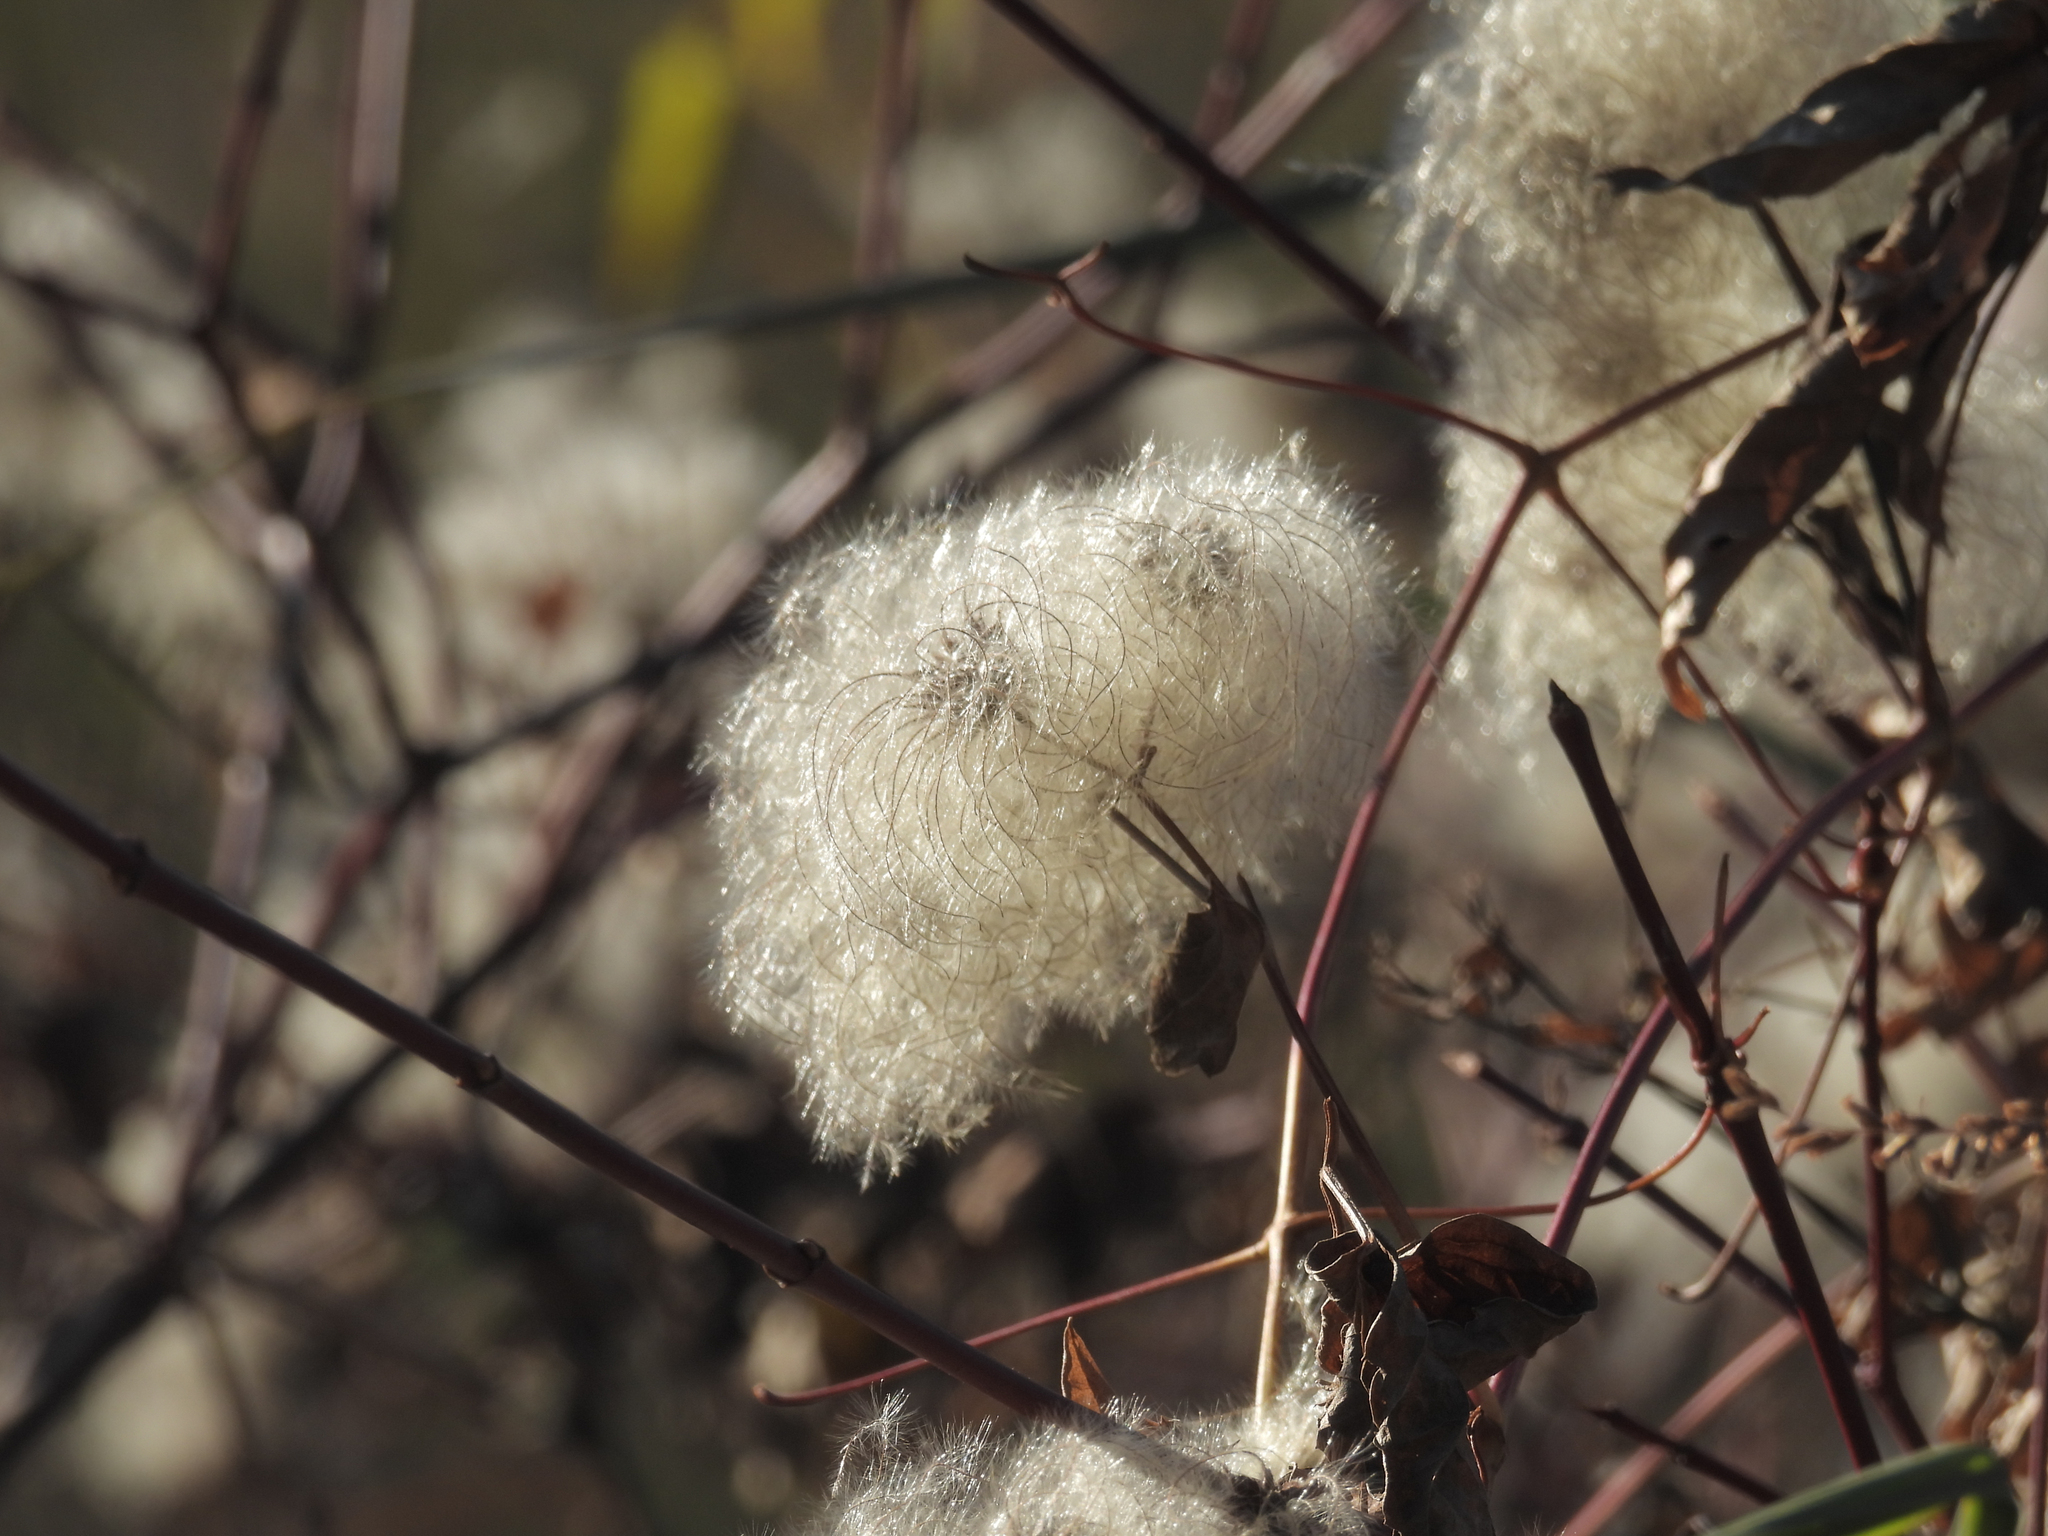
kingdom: Plantae
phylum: Tracheophyta
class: Magnoliopsida
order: Ranunculales
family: Ranunculaceae
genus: Clematis
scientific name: Clematis virginiana
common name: Virgin's-bower
